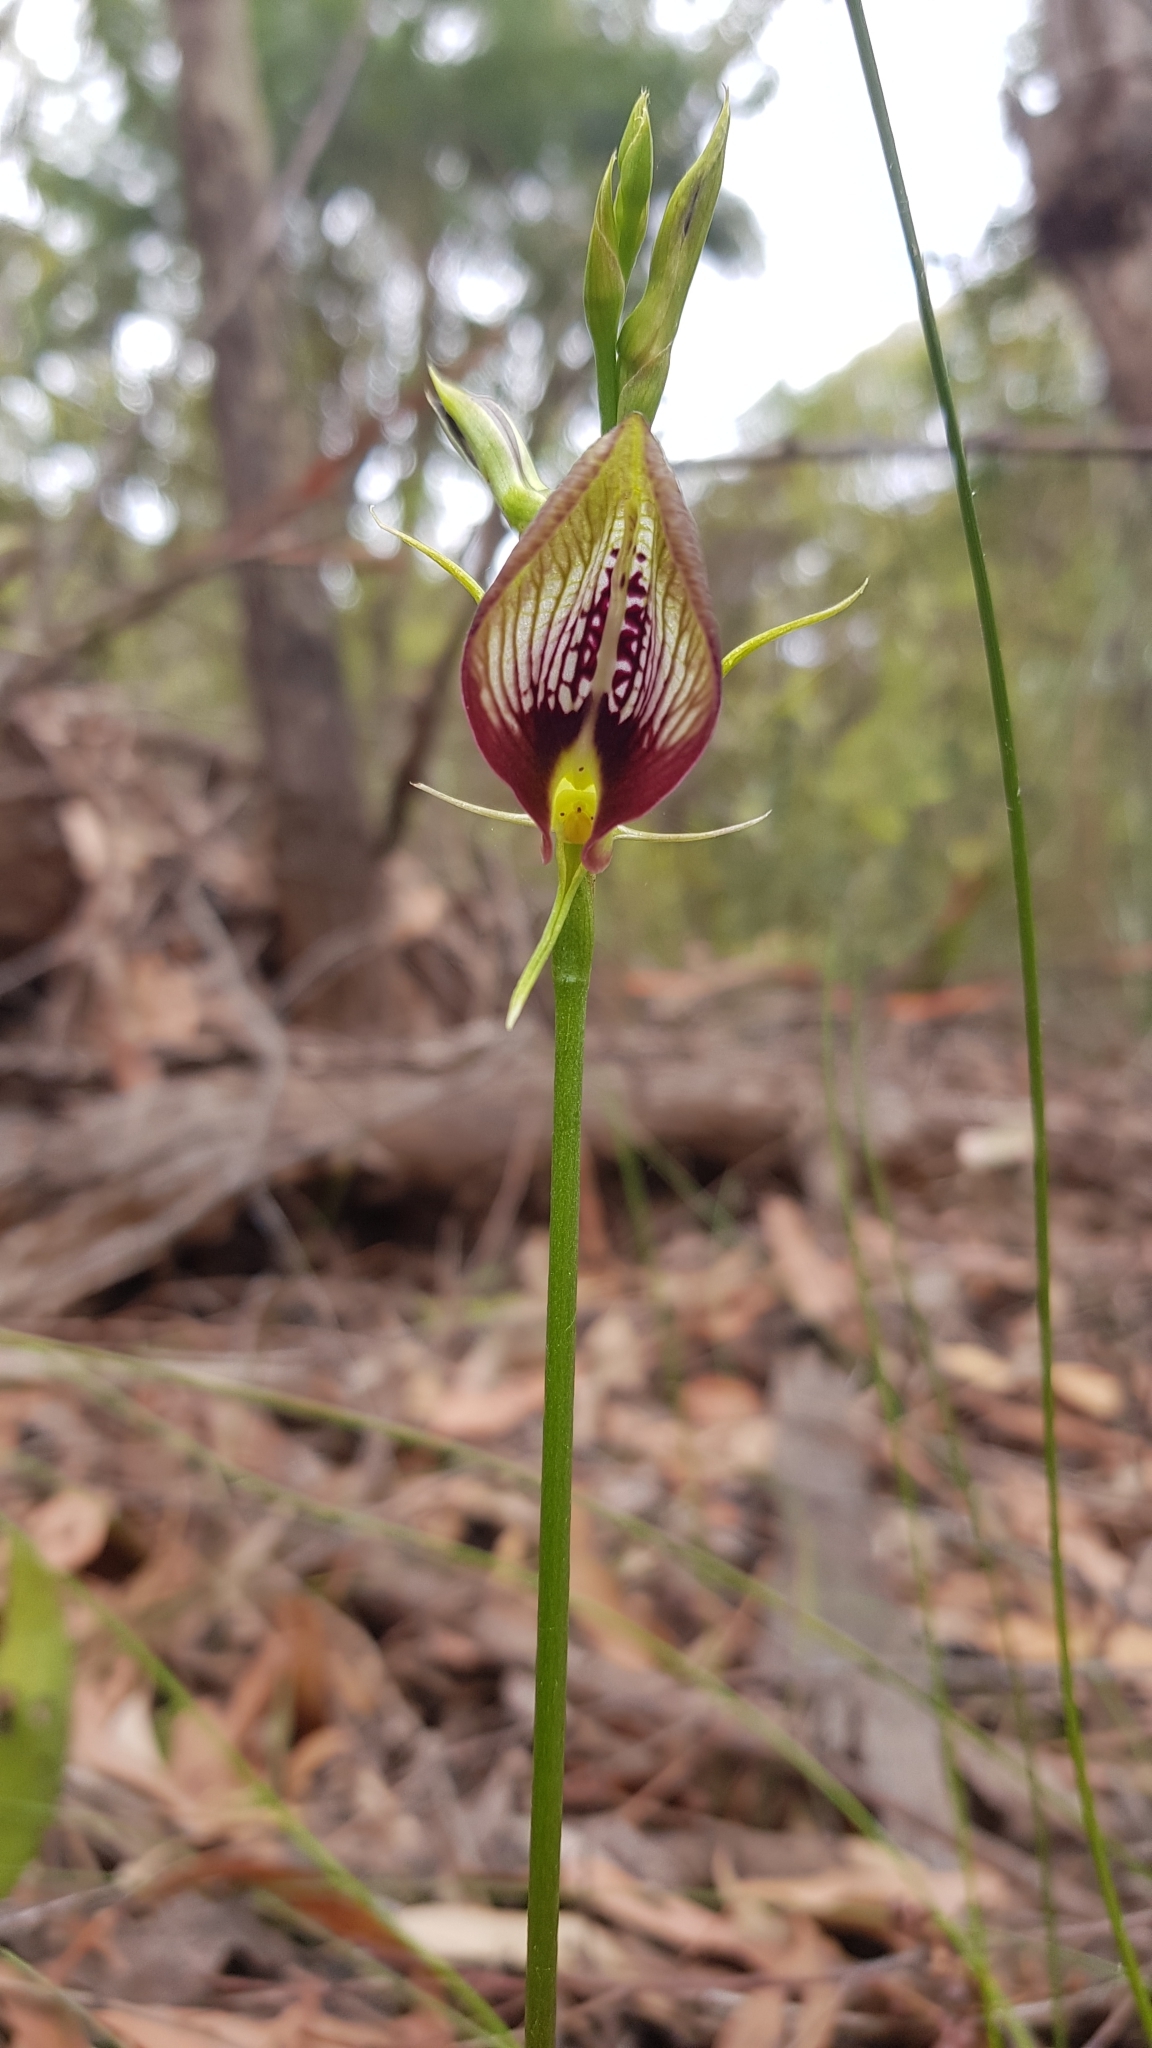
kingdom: Plantae
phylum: Tracheophyta
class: Liliopsida
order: Asparagales
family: Orchidaceae
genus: Cryptostylis
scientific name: Cryptostylis erecta
